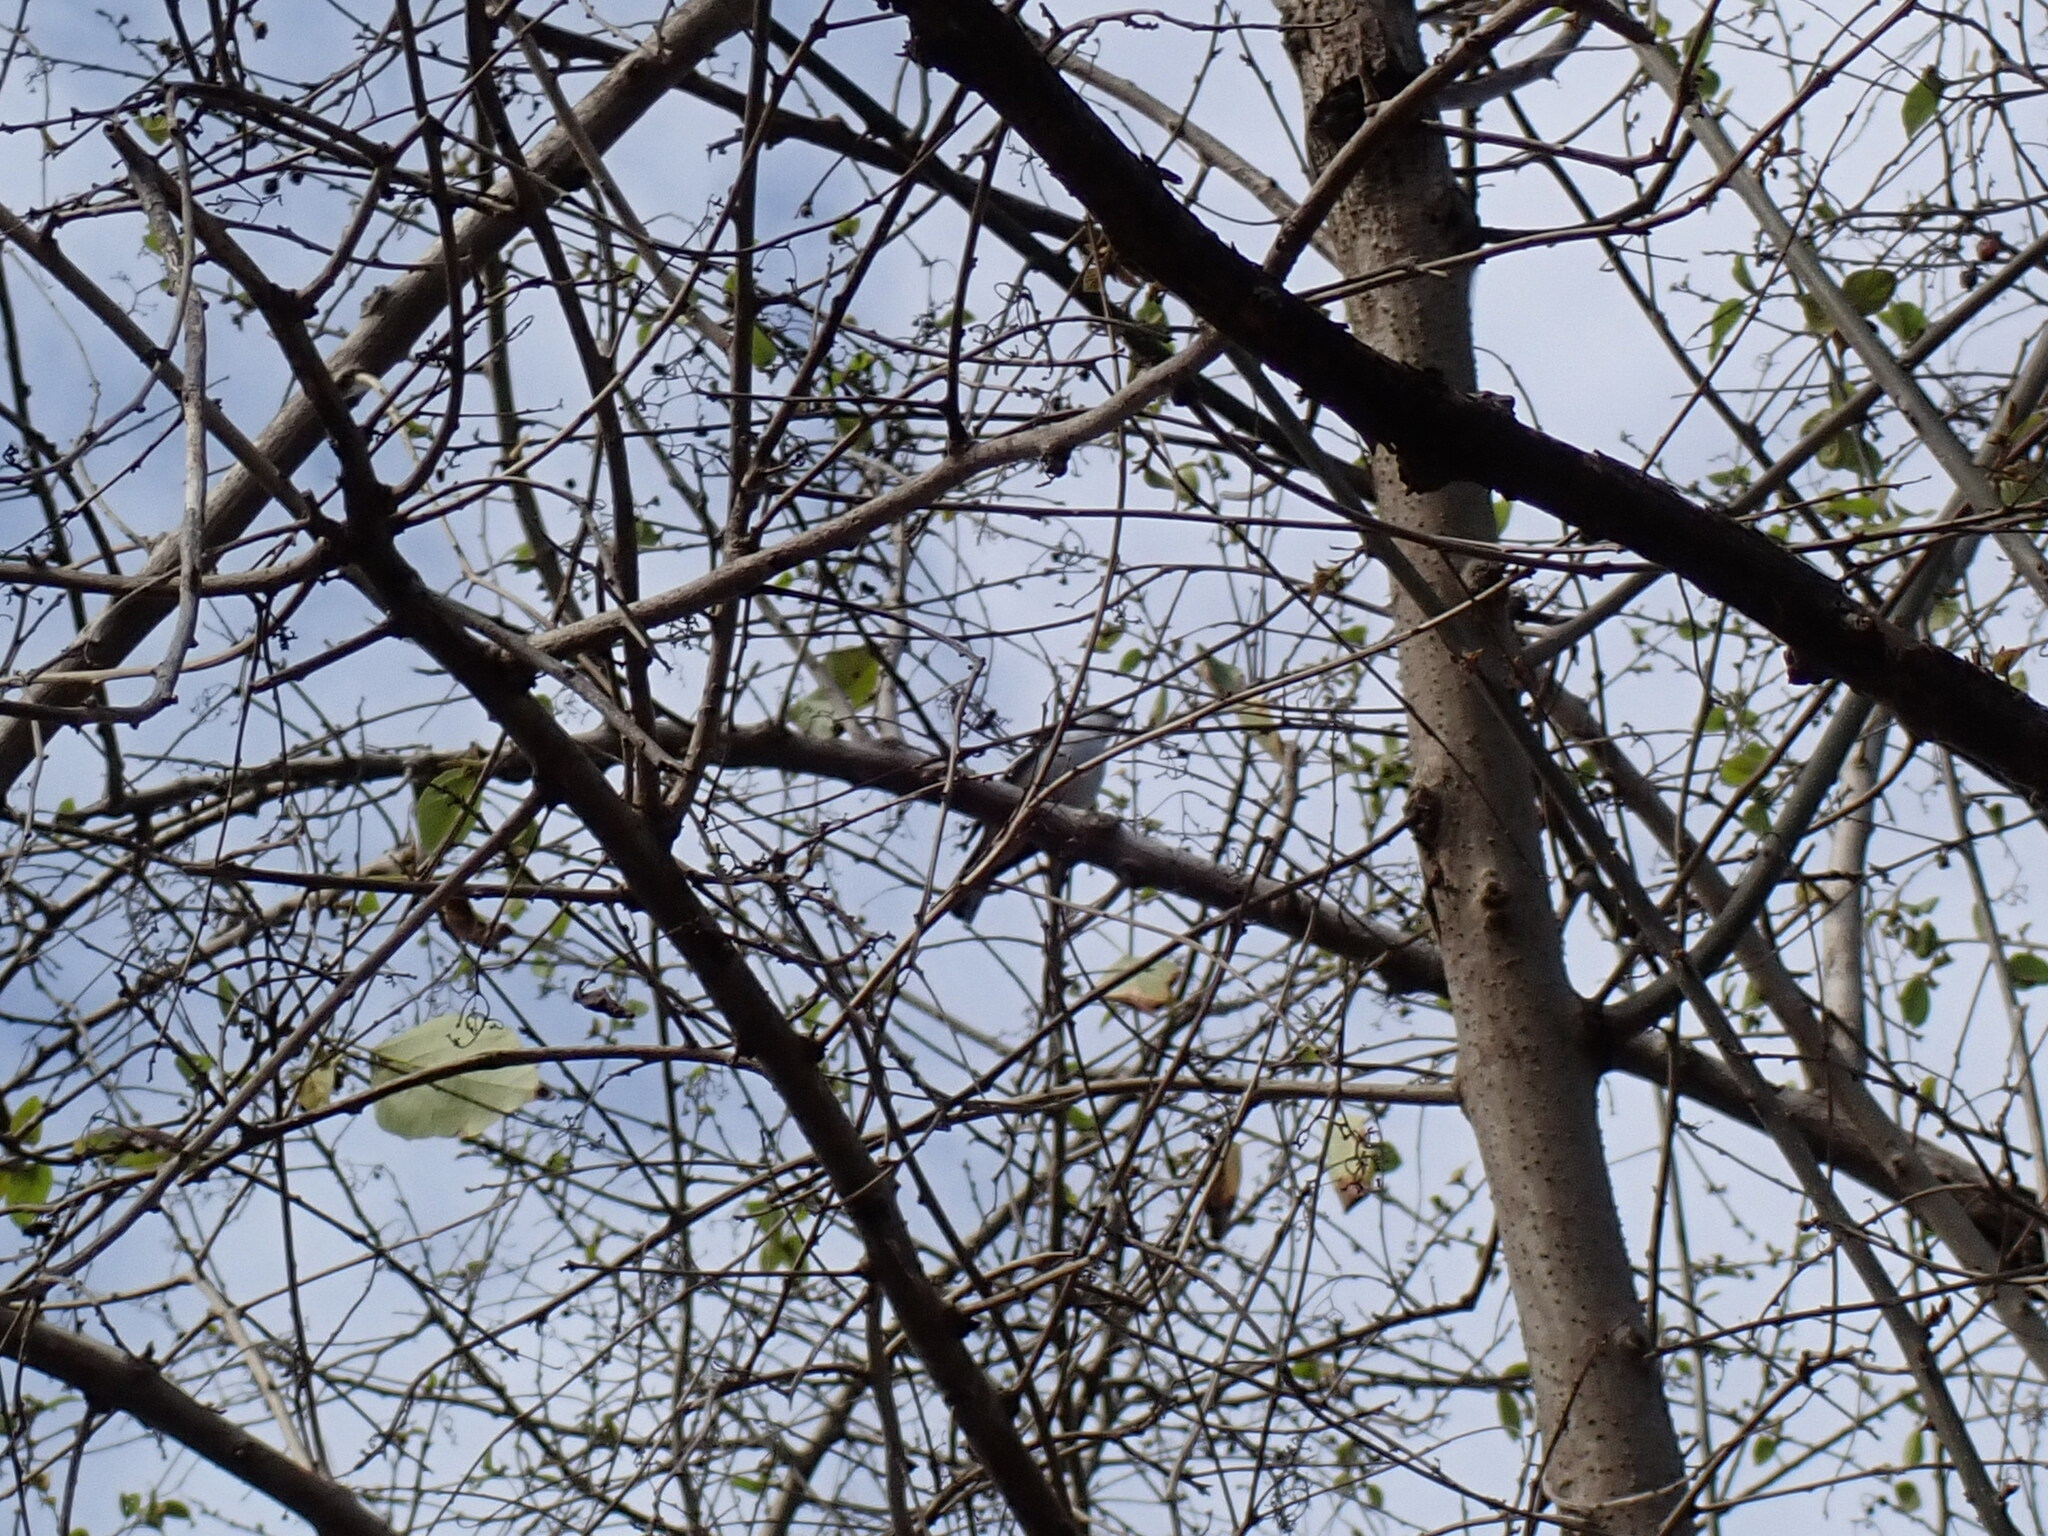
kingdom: Animalia
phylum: Chordata
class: Aves
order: Passeriformes
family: Campephagidae
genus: Lalage
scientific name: Lalage leucomela
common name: Varied triller
